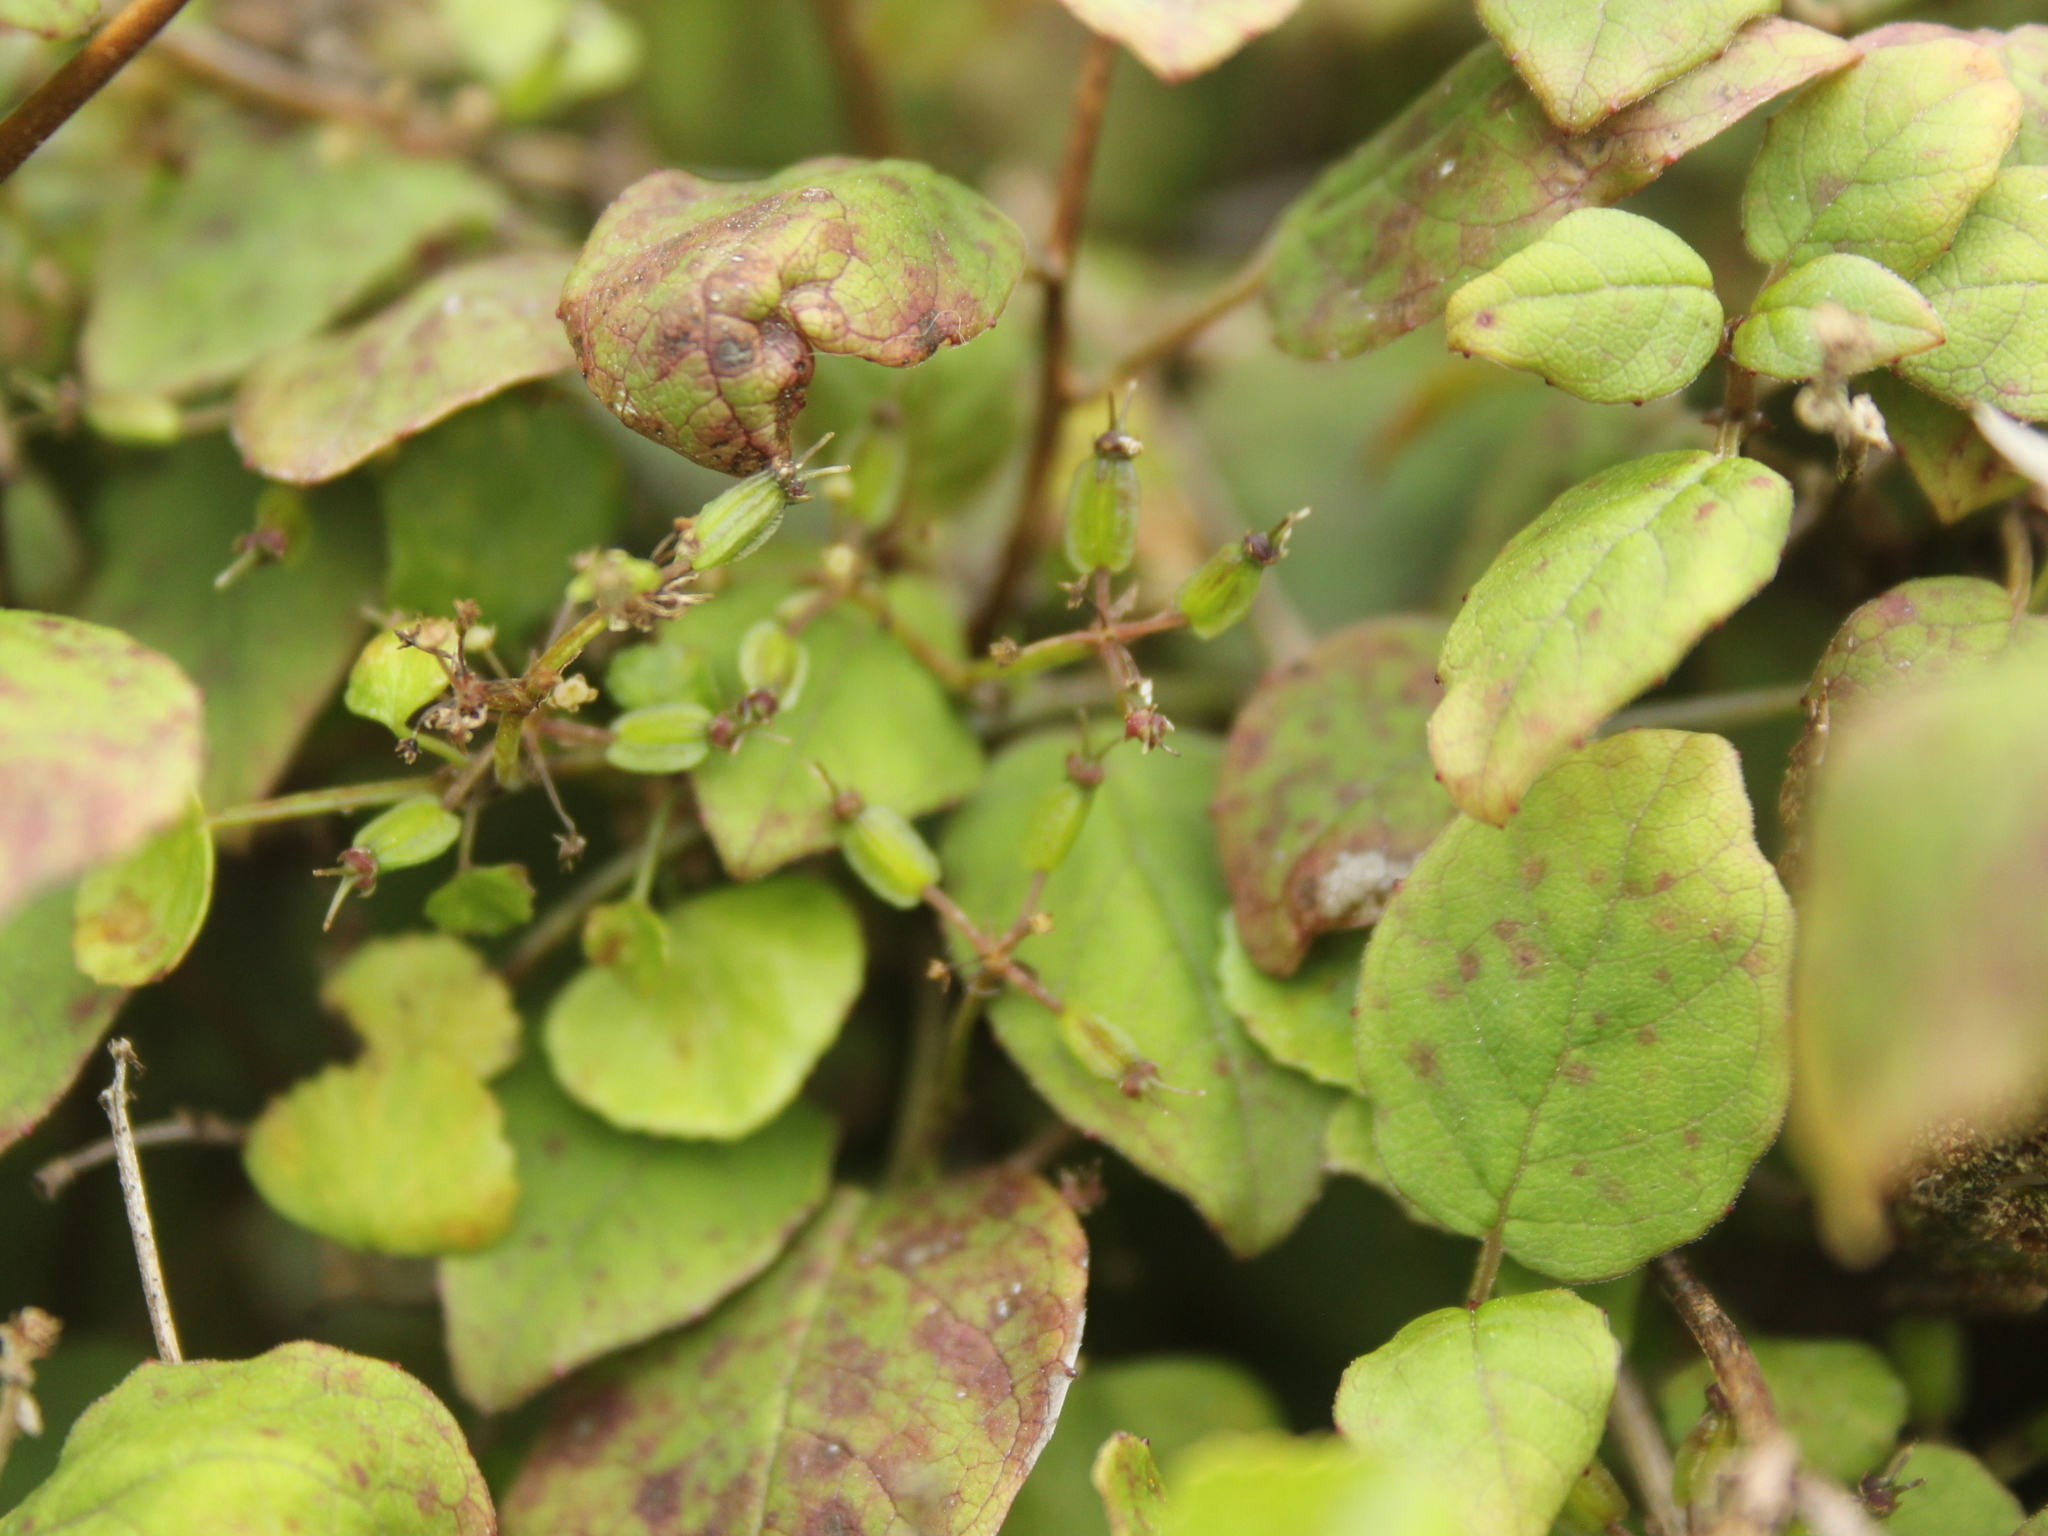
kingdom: Plantae
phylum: Tracheophyta
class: Magnoliopsida
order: Apiales
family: Apiaceae
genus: Scandia
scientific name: Scandia geniculata
